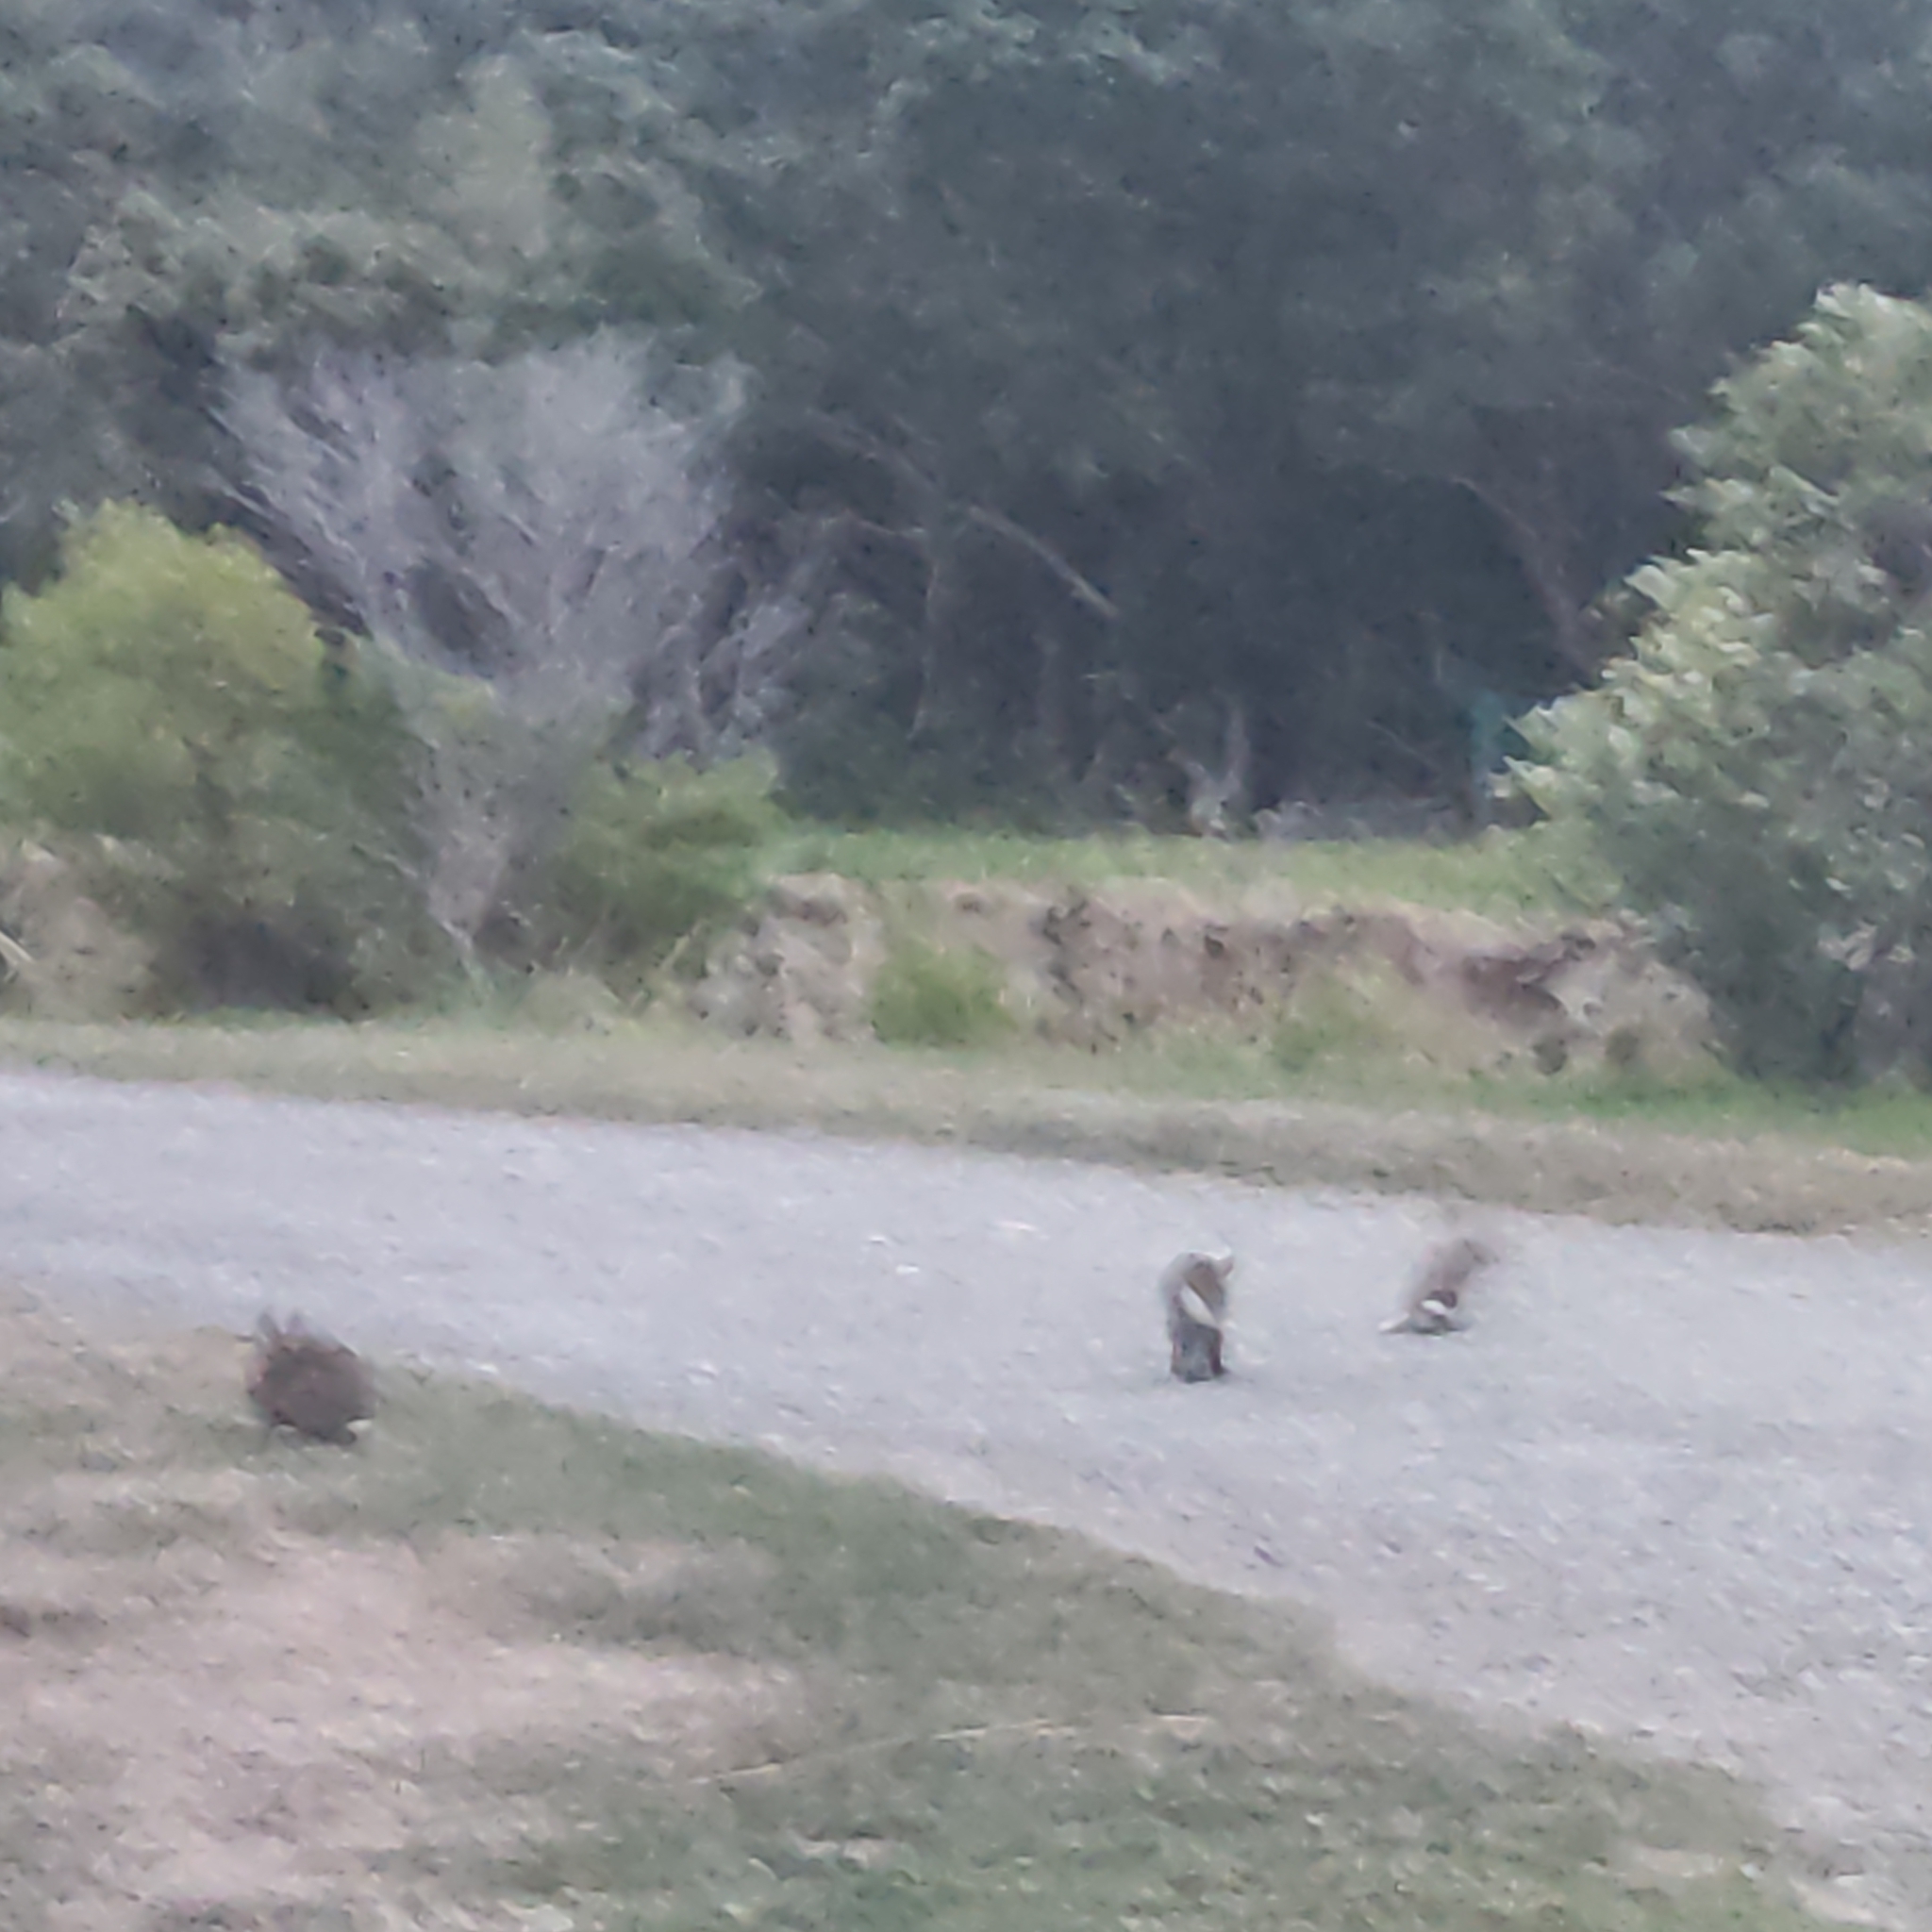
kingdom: Animalia
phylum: Chordata
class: Mammalia
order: Lagomorpha
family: Leporidae
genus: Oryctolagus
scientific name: Oryctolagus cuniculus
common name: European rabbit
